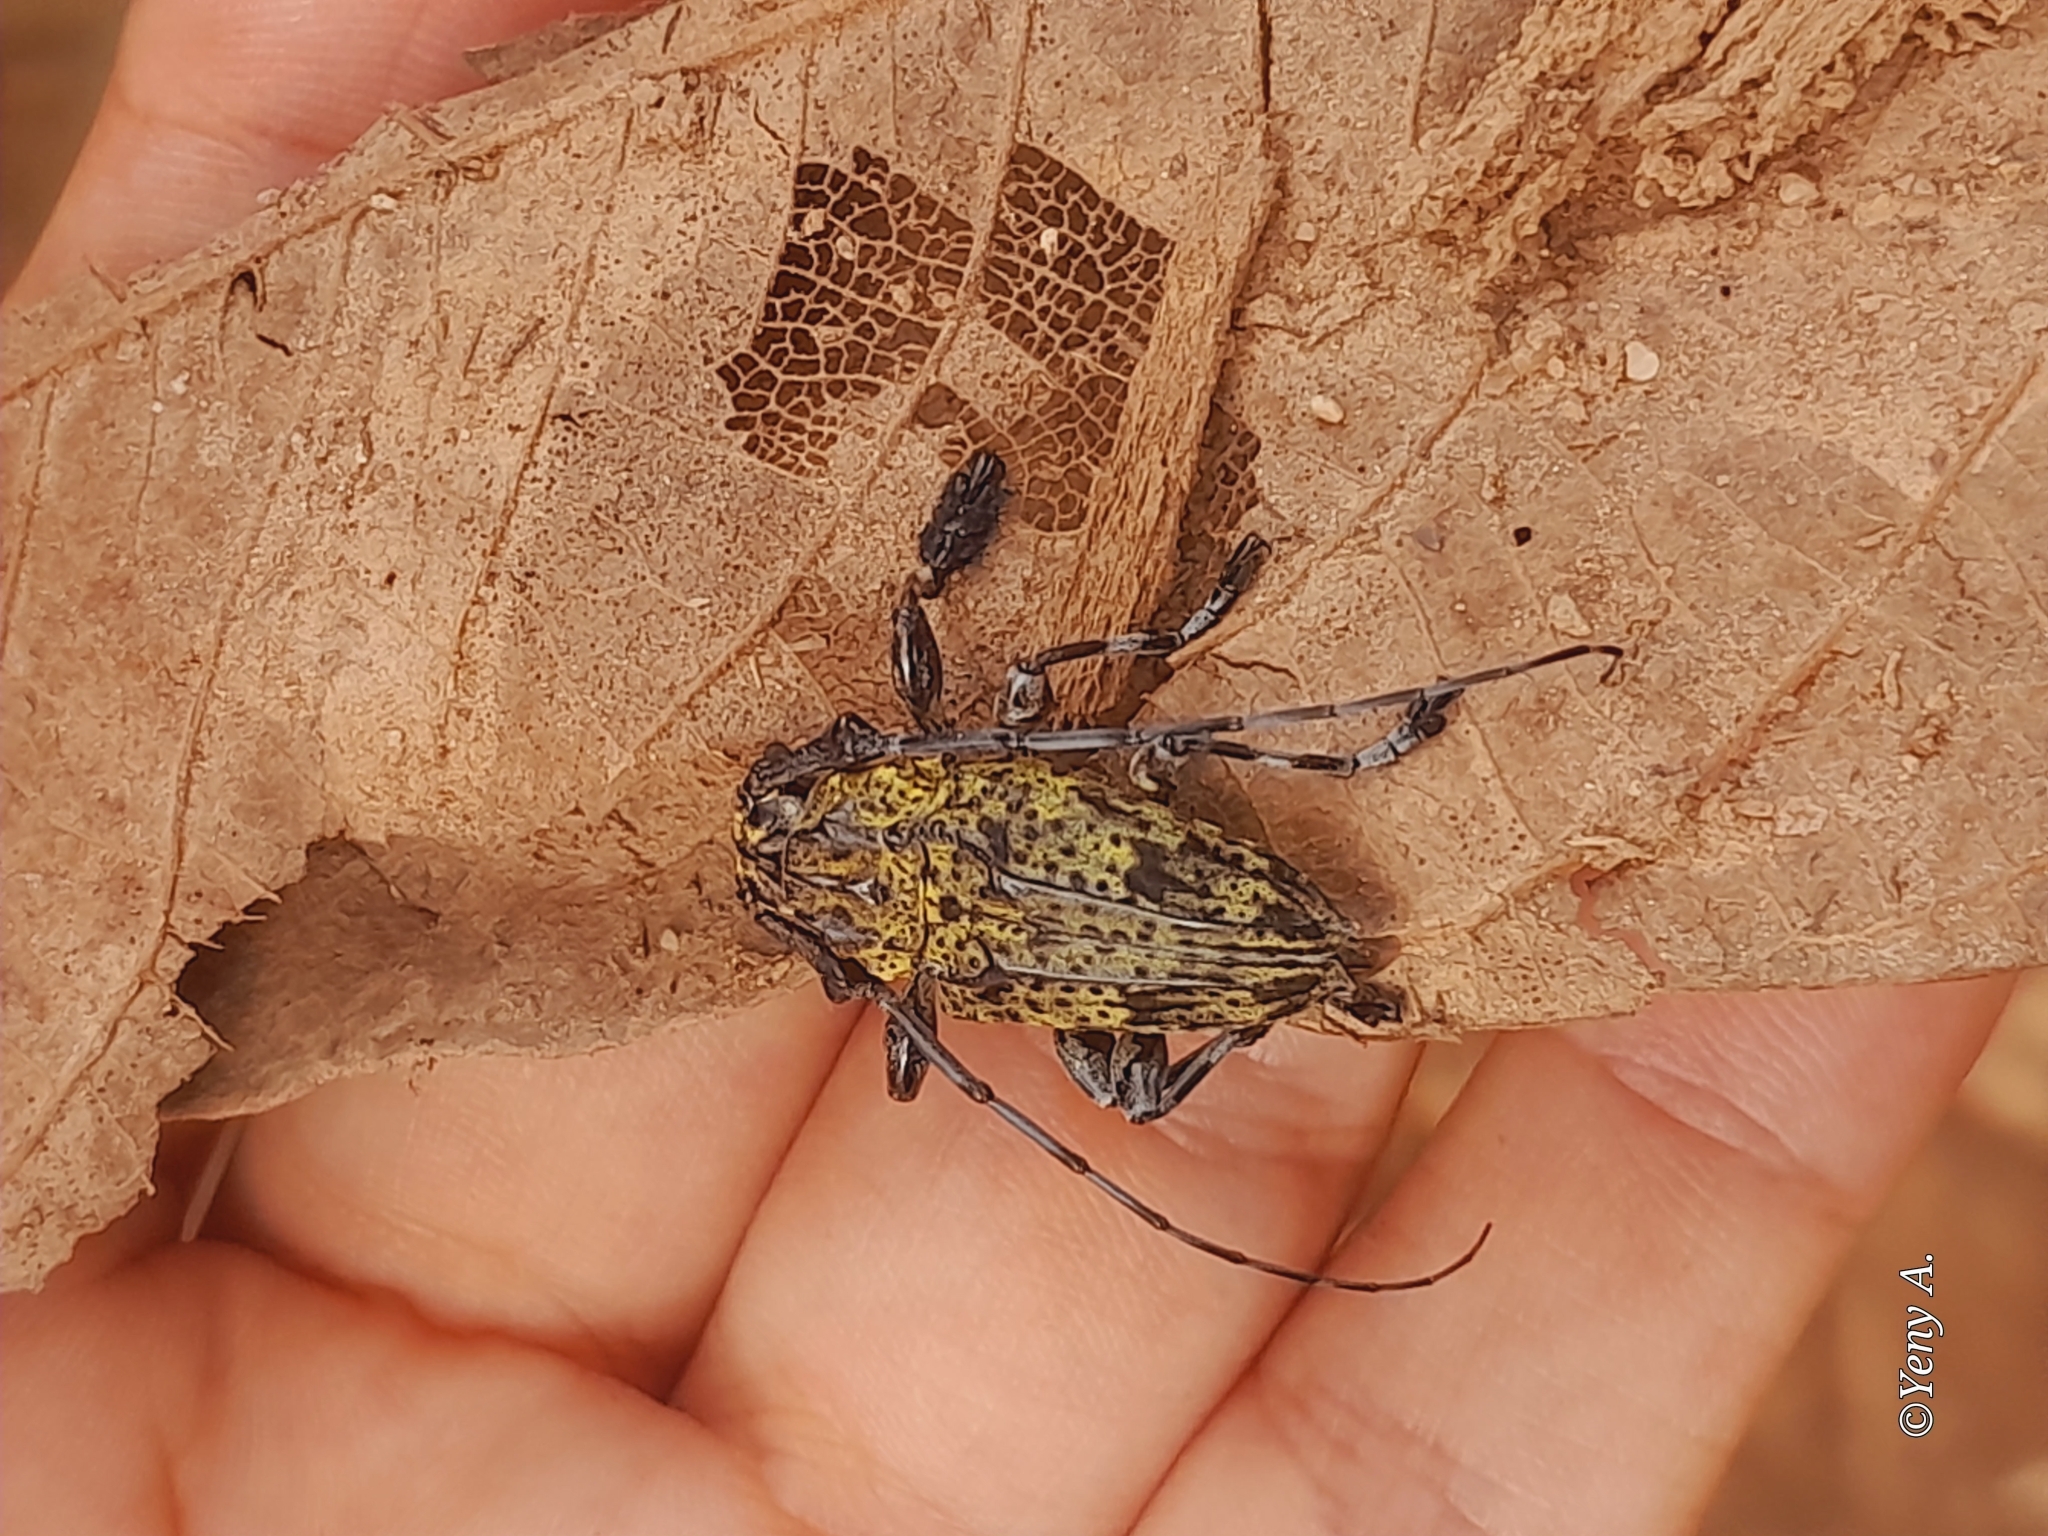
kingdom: Animalia
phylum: Arthropoda
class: Insecta
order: Coleoptera
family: Cerambycidae
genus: Steirastoma
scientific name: Steirastoma breve
